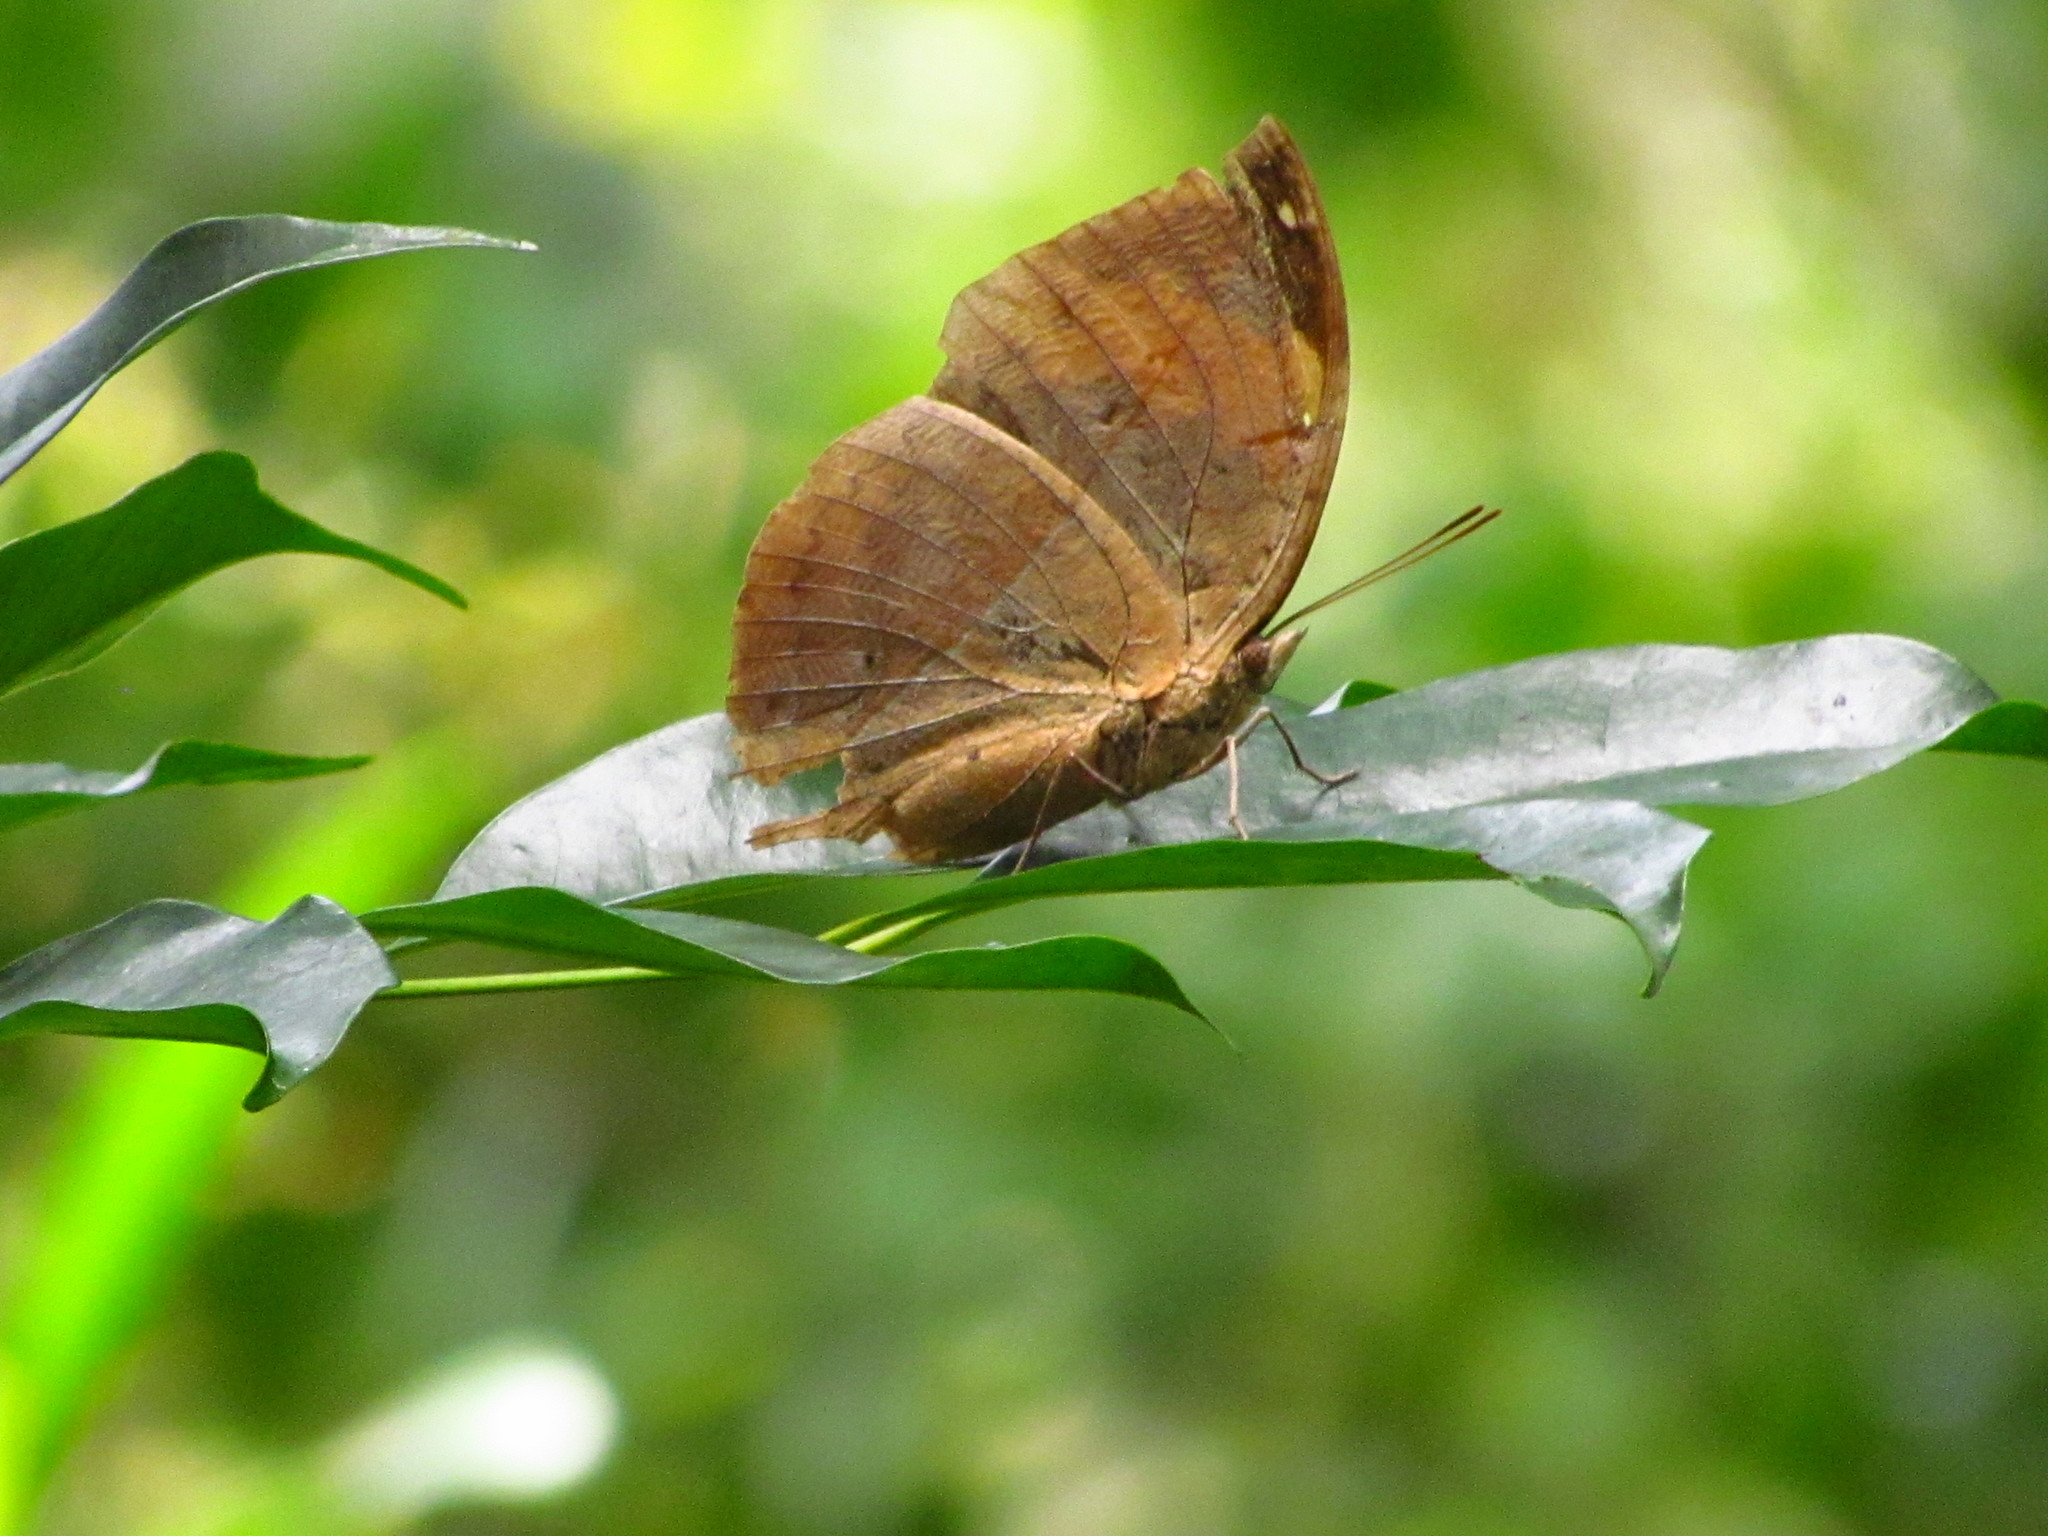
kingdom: Animalia
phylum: Arthropoda
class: Insecta
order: Lepidoptera
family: Nymphalidae
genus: Kallima
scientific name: Kallima inachus
